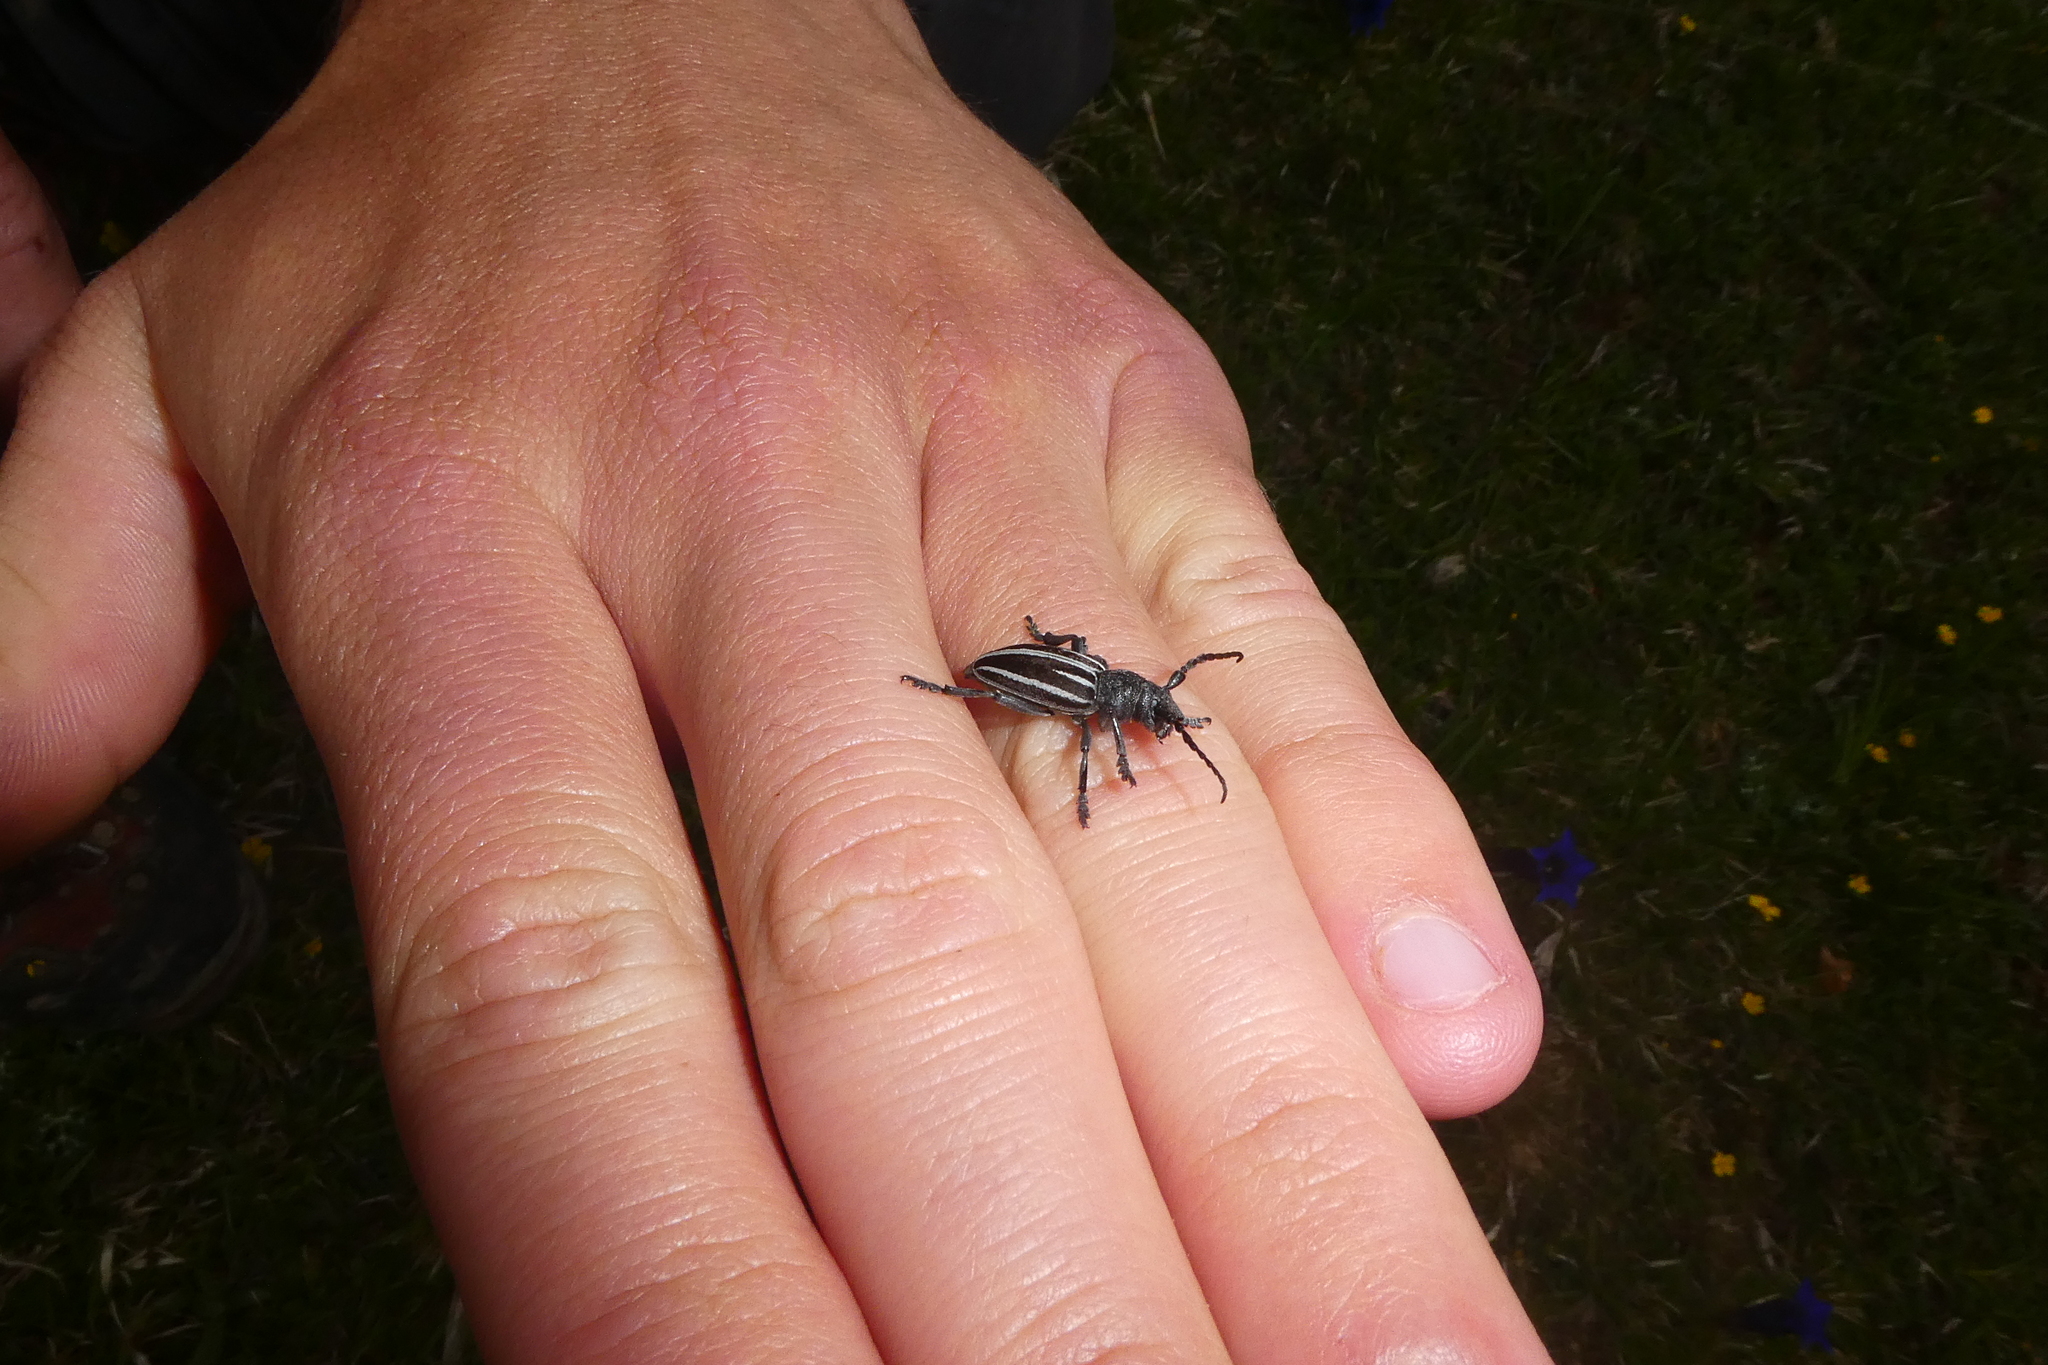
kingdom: Animalia
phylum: Arthropoda
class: Insecta
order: Coleoptera
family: Cerambycidae
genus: Iberodorcadion
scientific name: Iberodorcadion fuliginator
